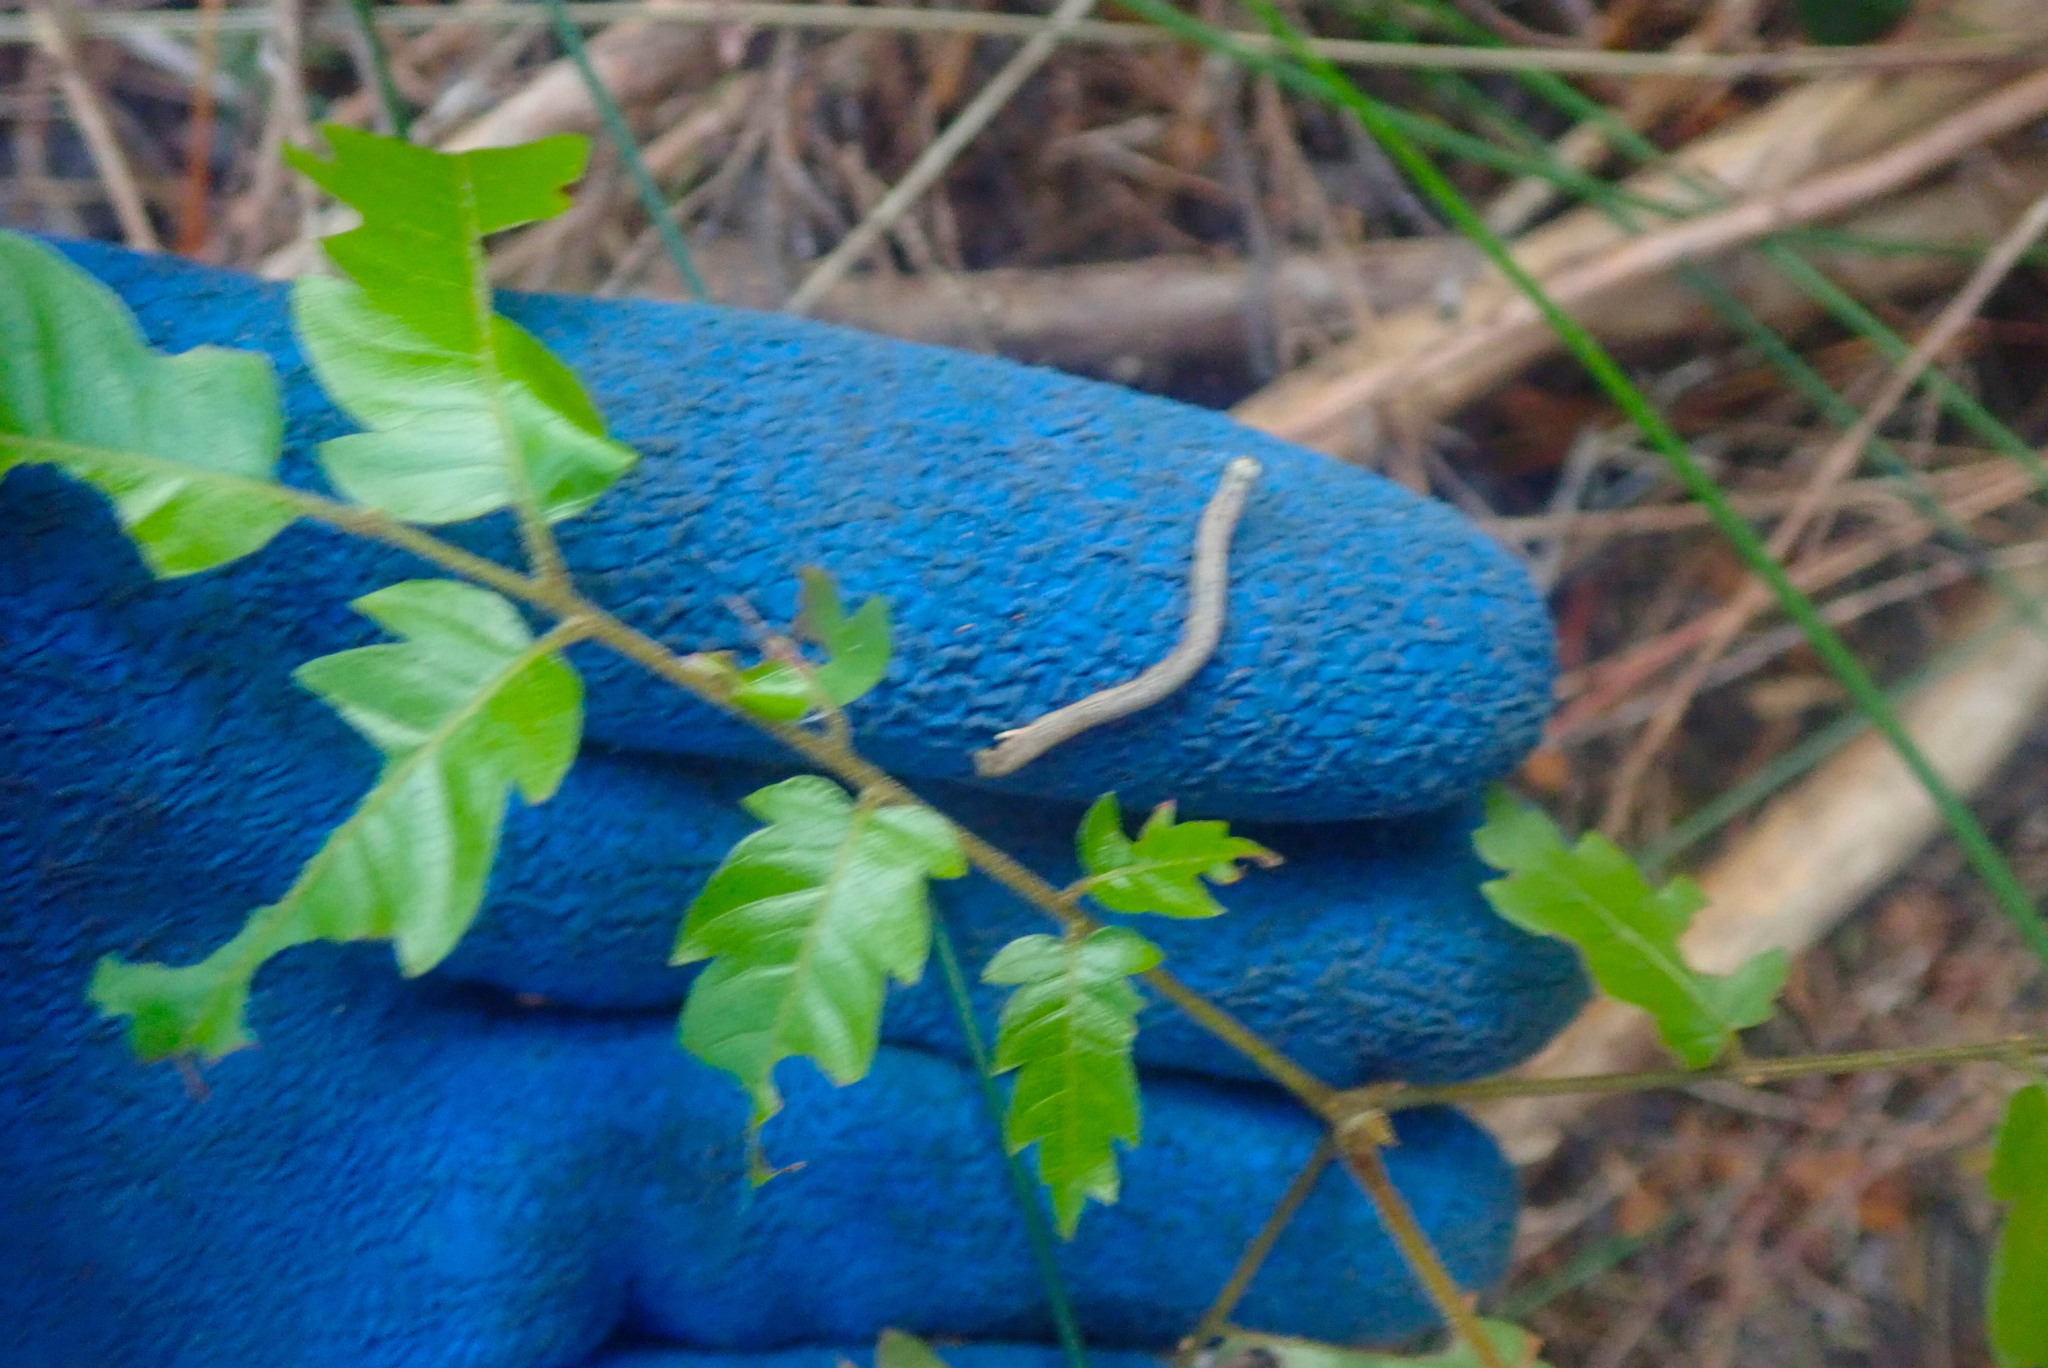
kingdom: Plantae
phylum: Tracheophyta
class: Magnoliopsida
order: Sapindales
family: Sapindaceae
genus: Alectryon
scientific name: Alectryon excelsus
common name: Three kings titoki
